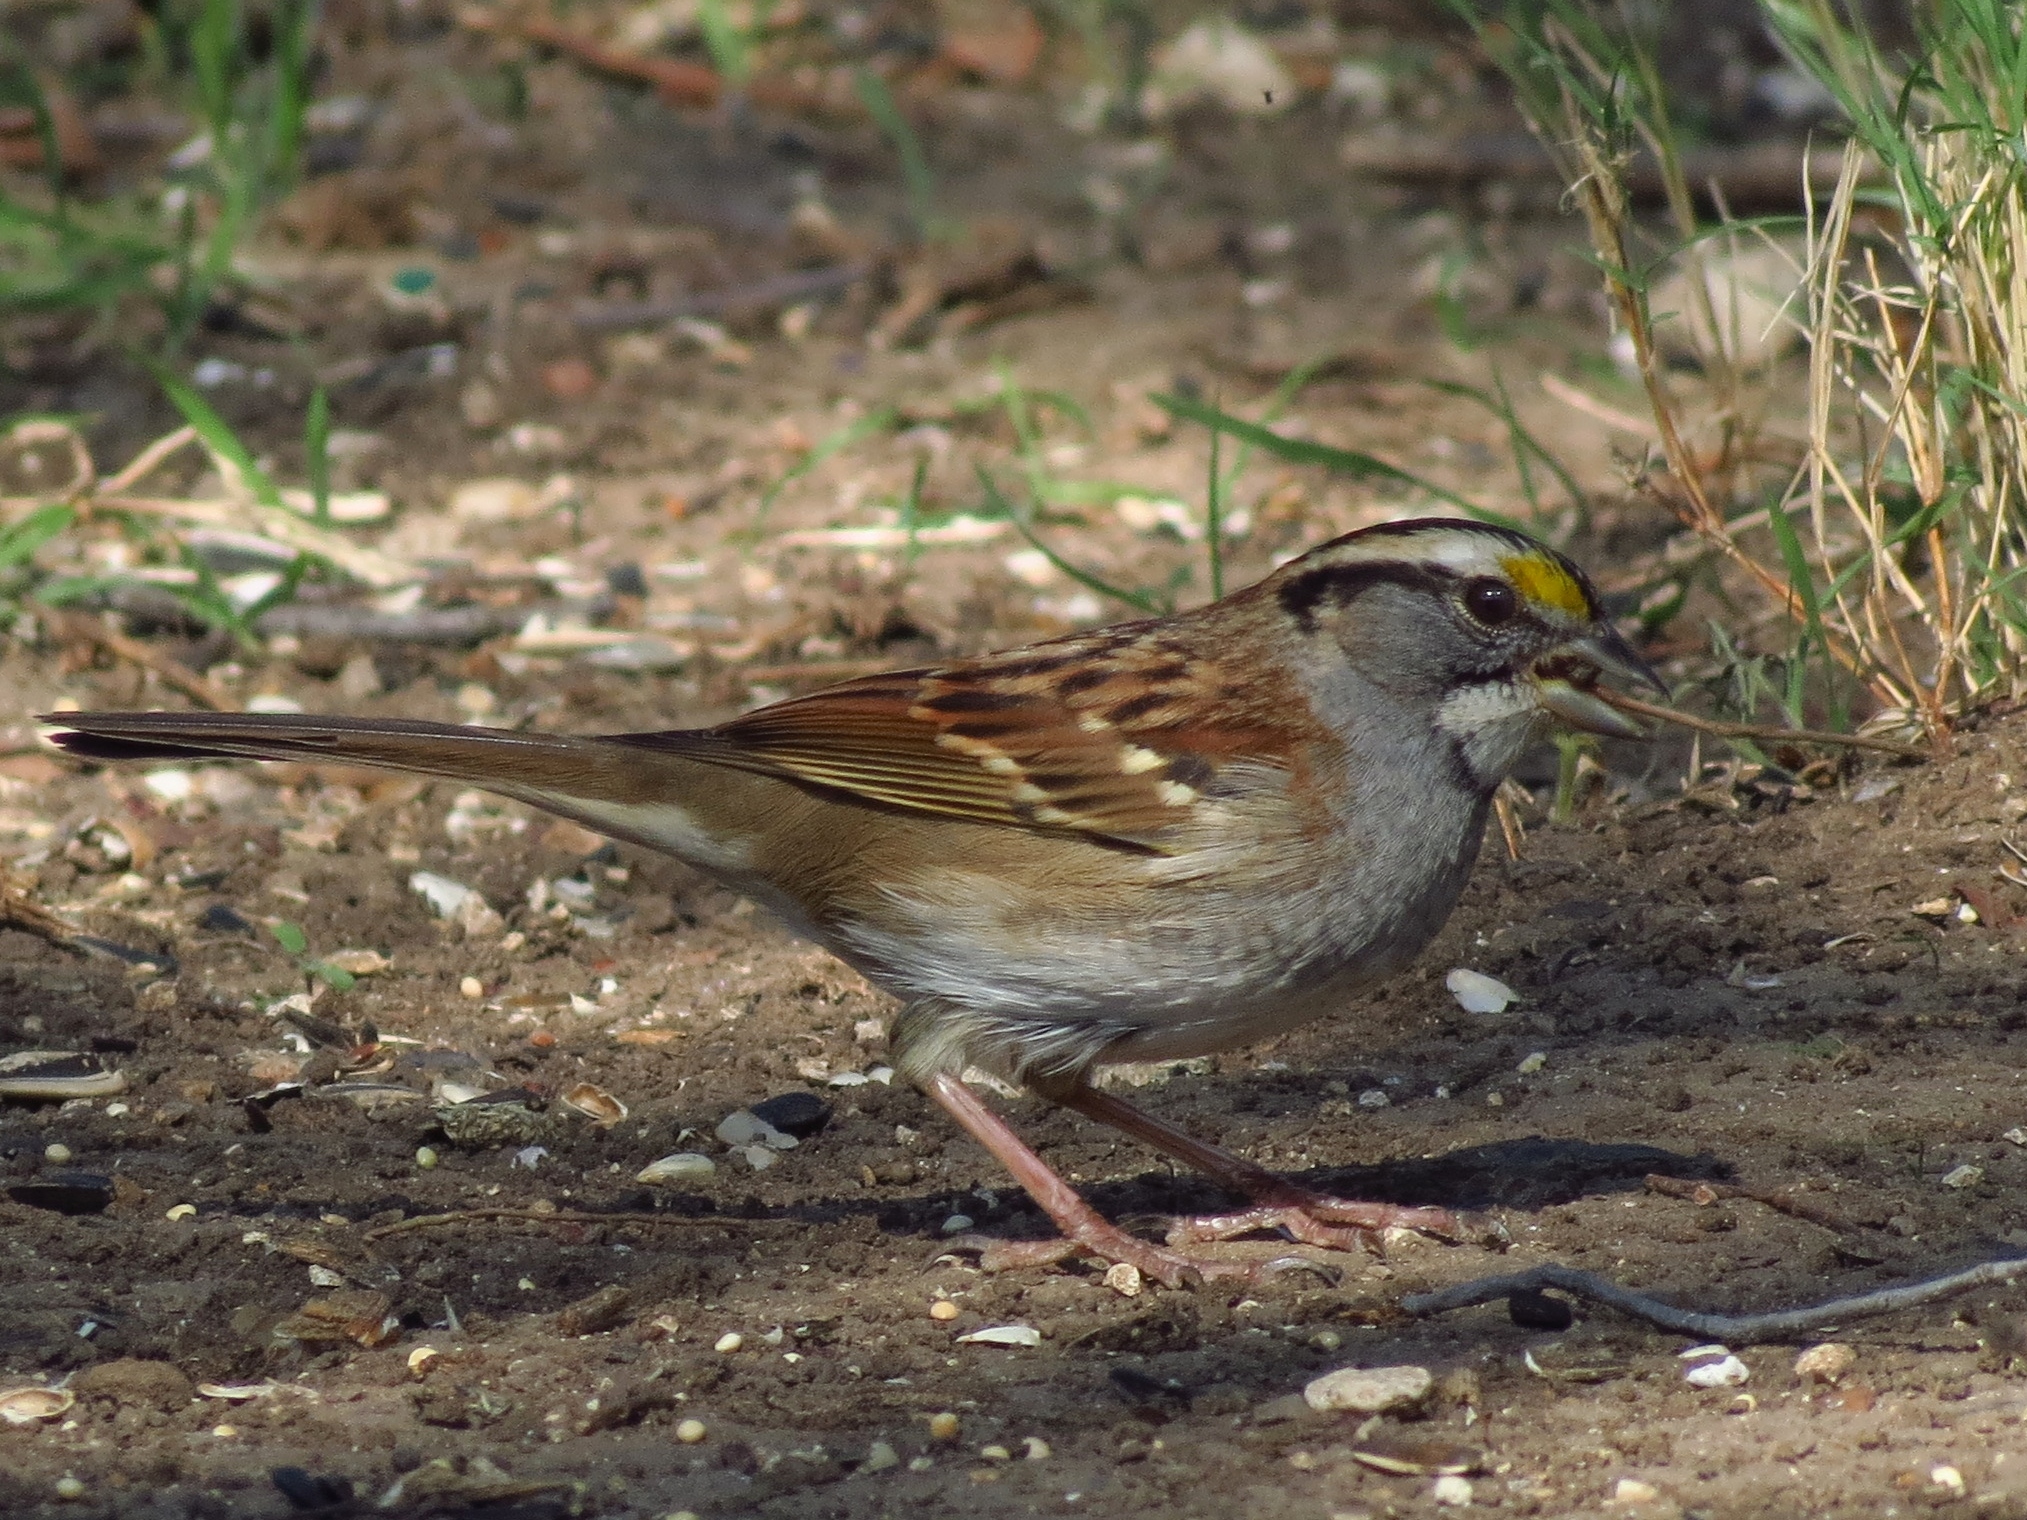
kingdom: Animalia
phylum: Chordata
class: Aves
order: Passeriformes
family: Passerellidae
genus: Zonotrichia
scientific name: Zonotrichia albicollis
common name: White-throated sparrow
